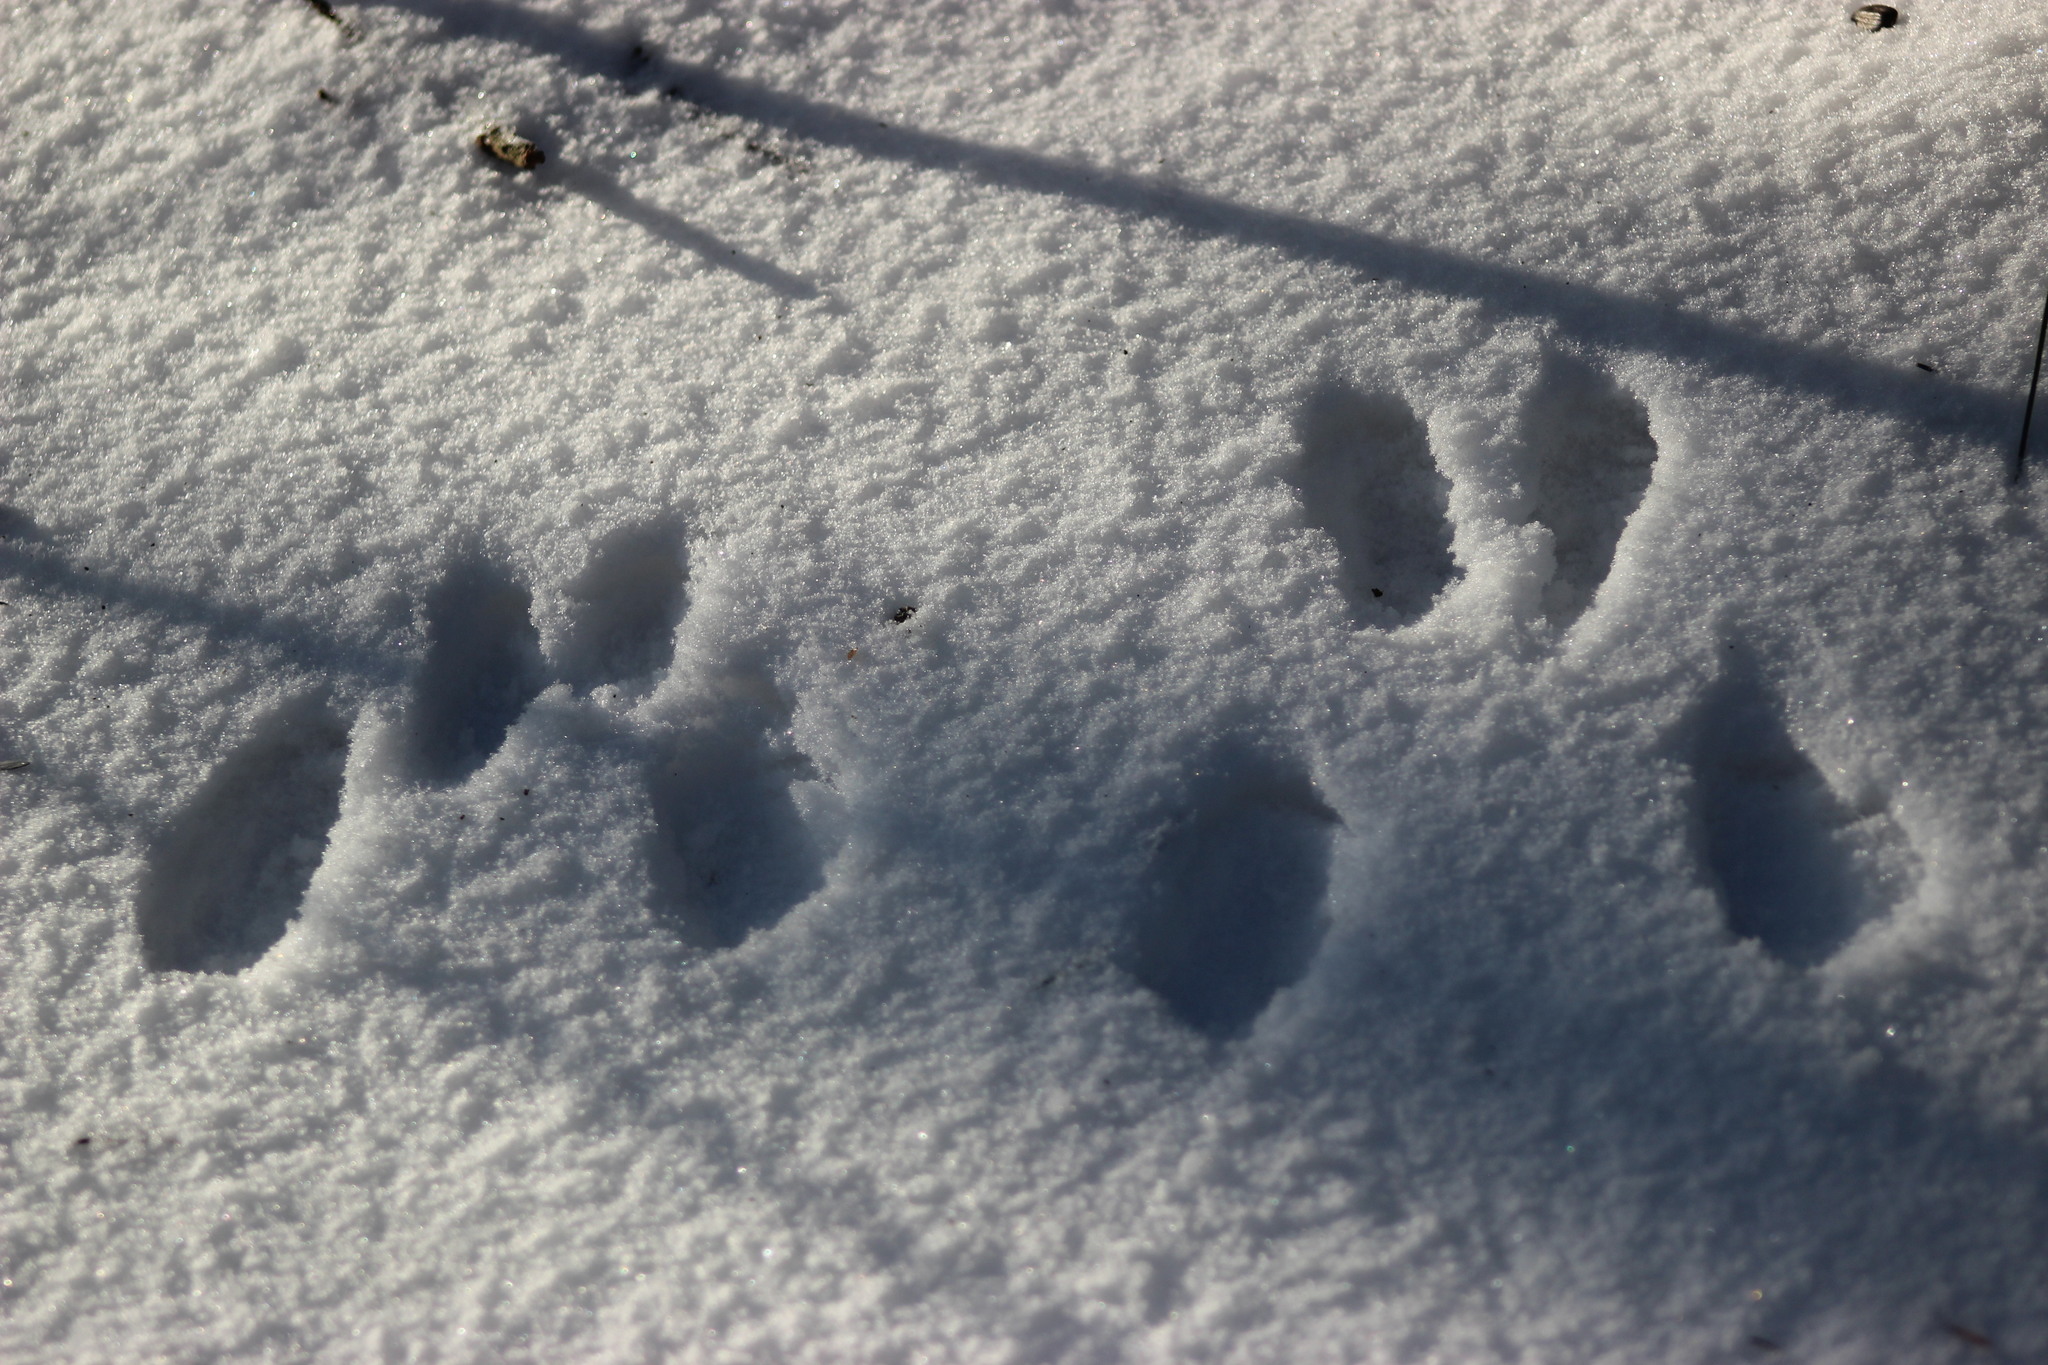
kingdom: Animalia
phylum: Chordata
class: Mammalia
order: Rodentia
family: Sciuridae
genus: Sciurus
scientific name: Sciurus vulgaris
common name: Eurasian red squirrel
